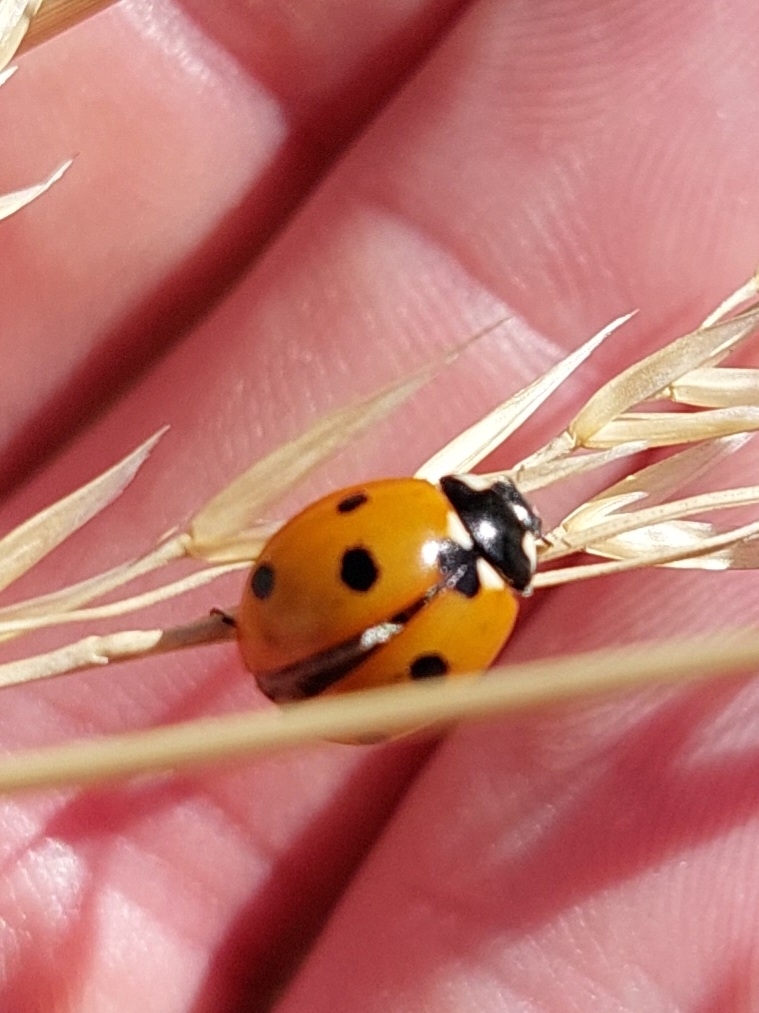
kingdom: Animalia
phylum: Arthropoda
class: Insecta
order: Coleoptera
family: Coccinellidae
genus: Coccinella
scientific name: Coccinella septempunctata
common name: Sevenspotted lady beetle
